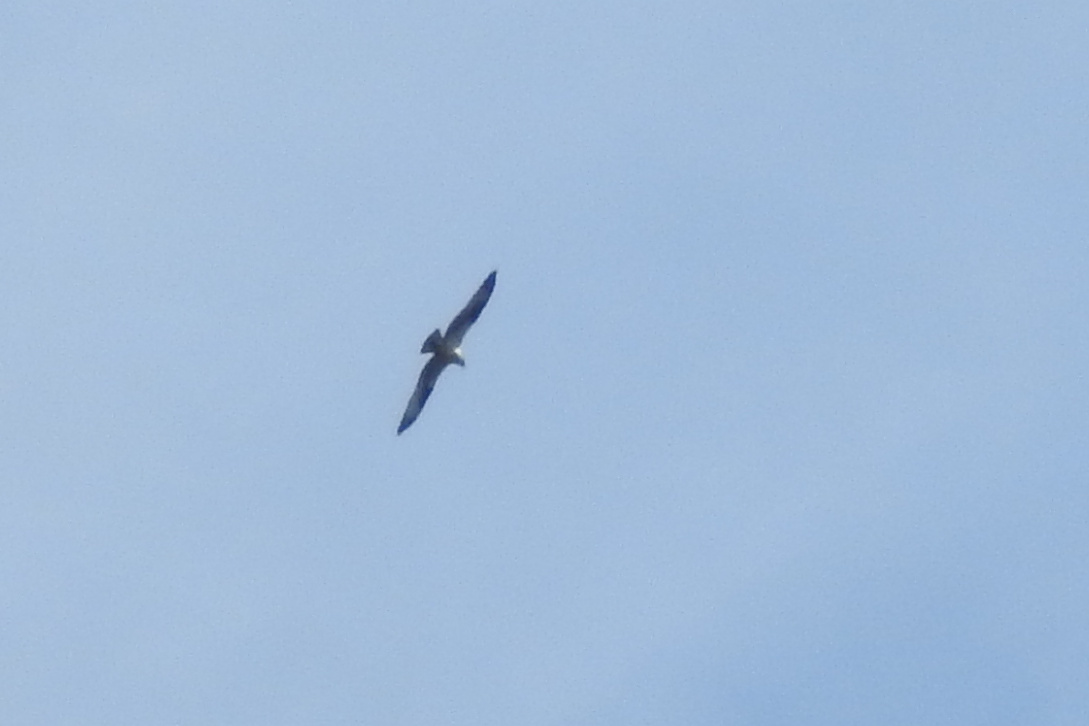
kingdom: Animalia
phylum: Chordata
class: Aves
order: Accipitriformes
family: Pandionidae
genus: Pandion
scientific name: Pandion haliaetus
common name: Osprey
